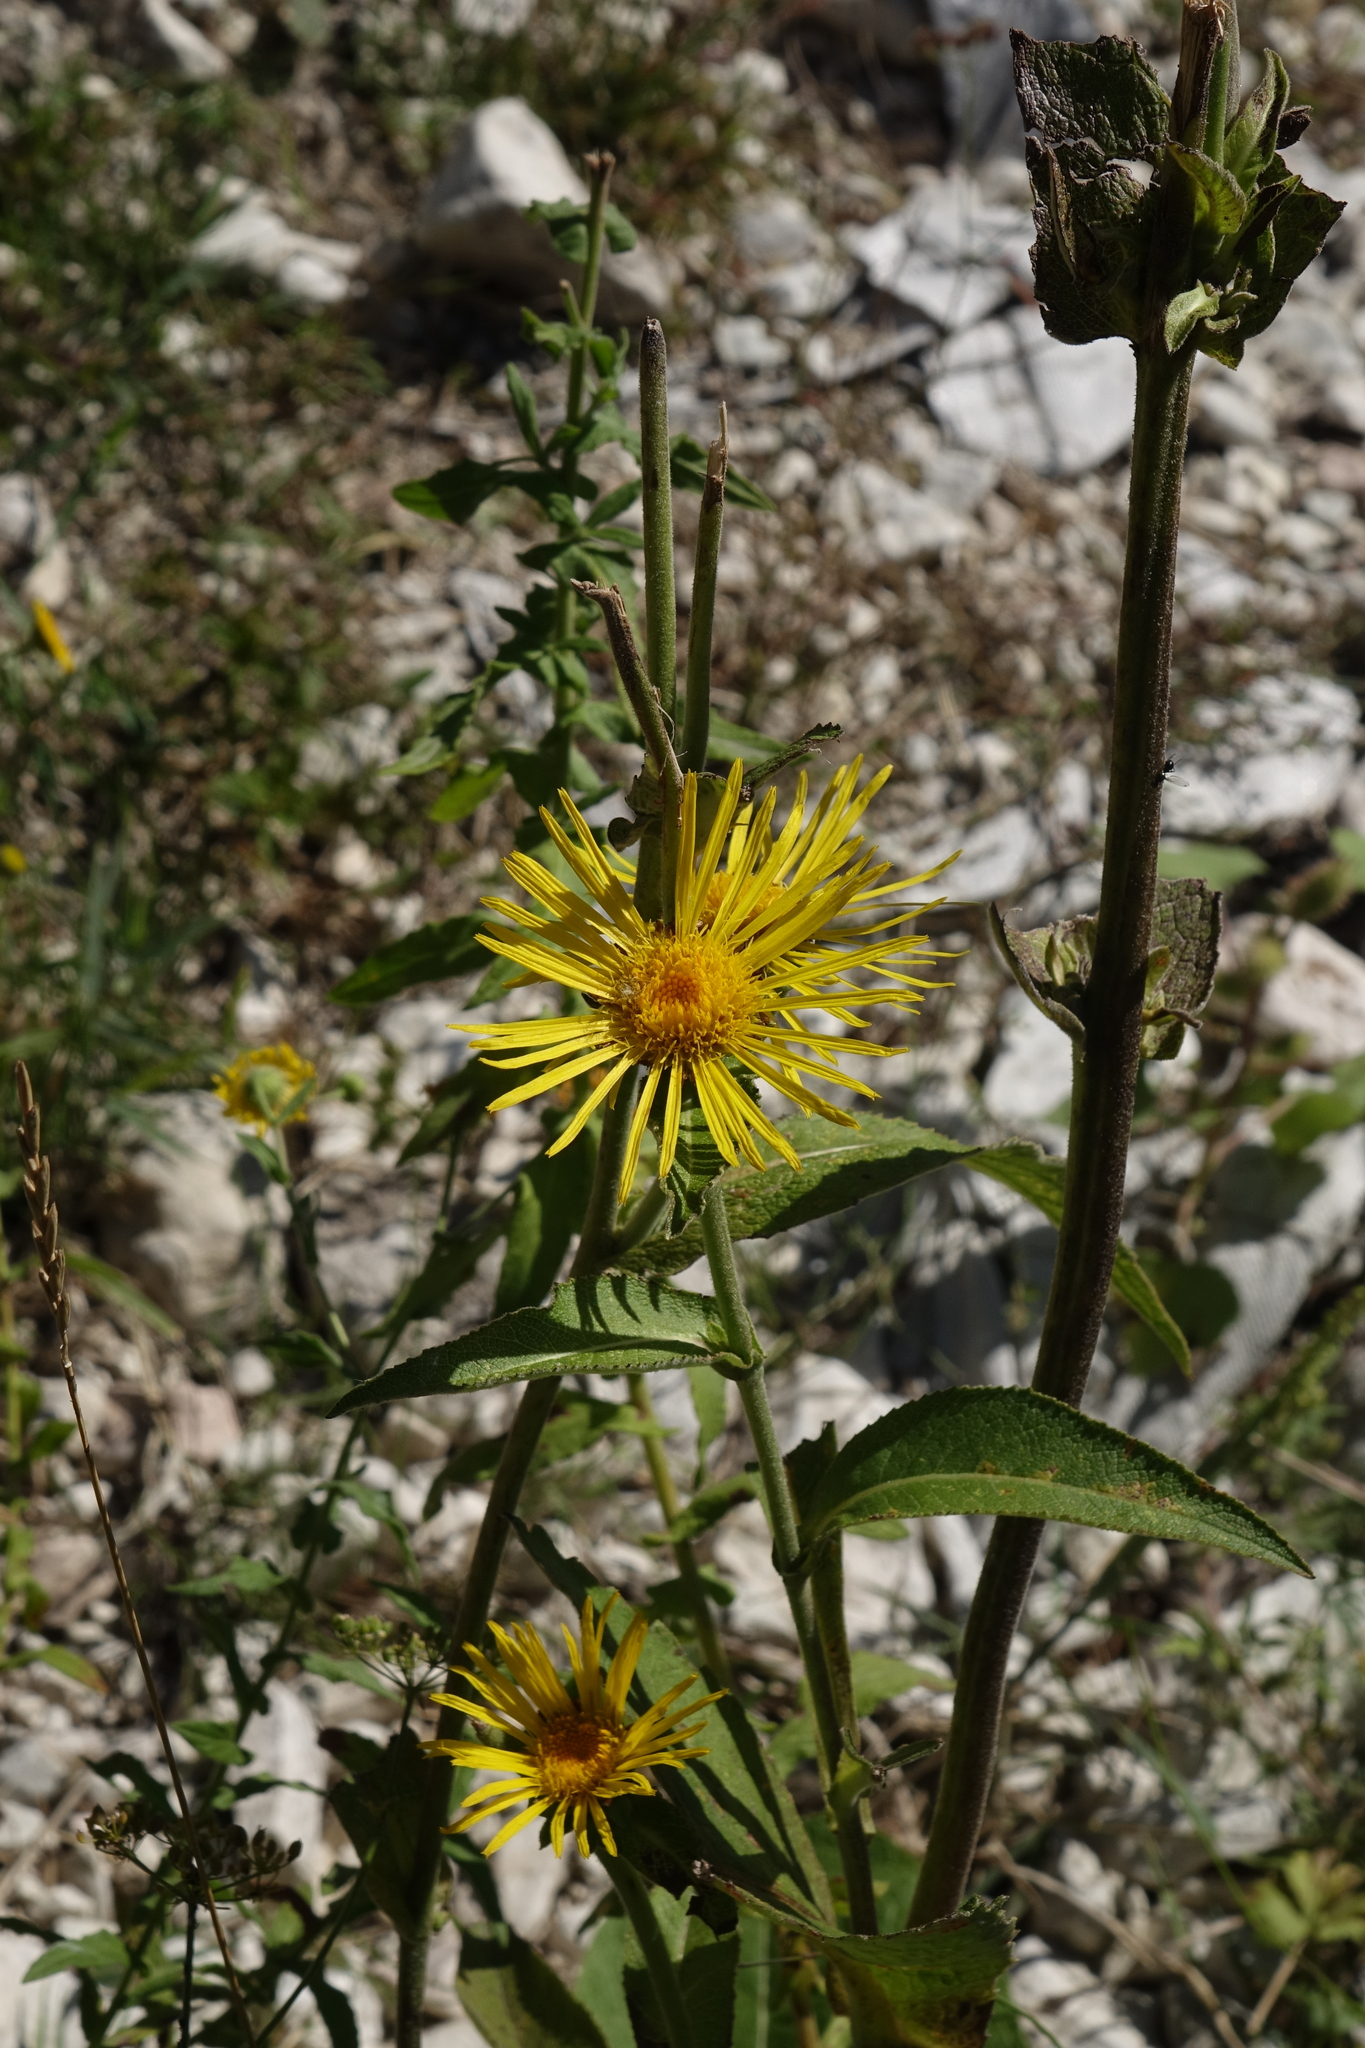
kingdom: Plantae
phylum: Tracheophyta
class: Magnoliopsida
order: Asterales
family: Asteraceae
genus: Inula
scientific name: Inula helenium
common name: Elecampane
